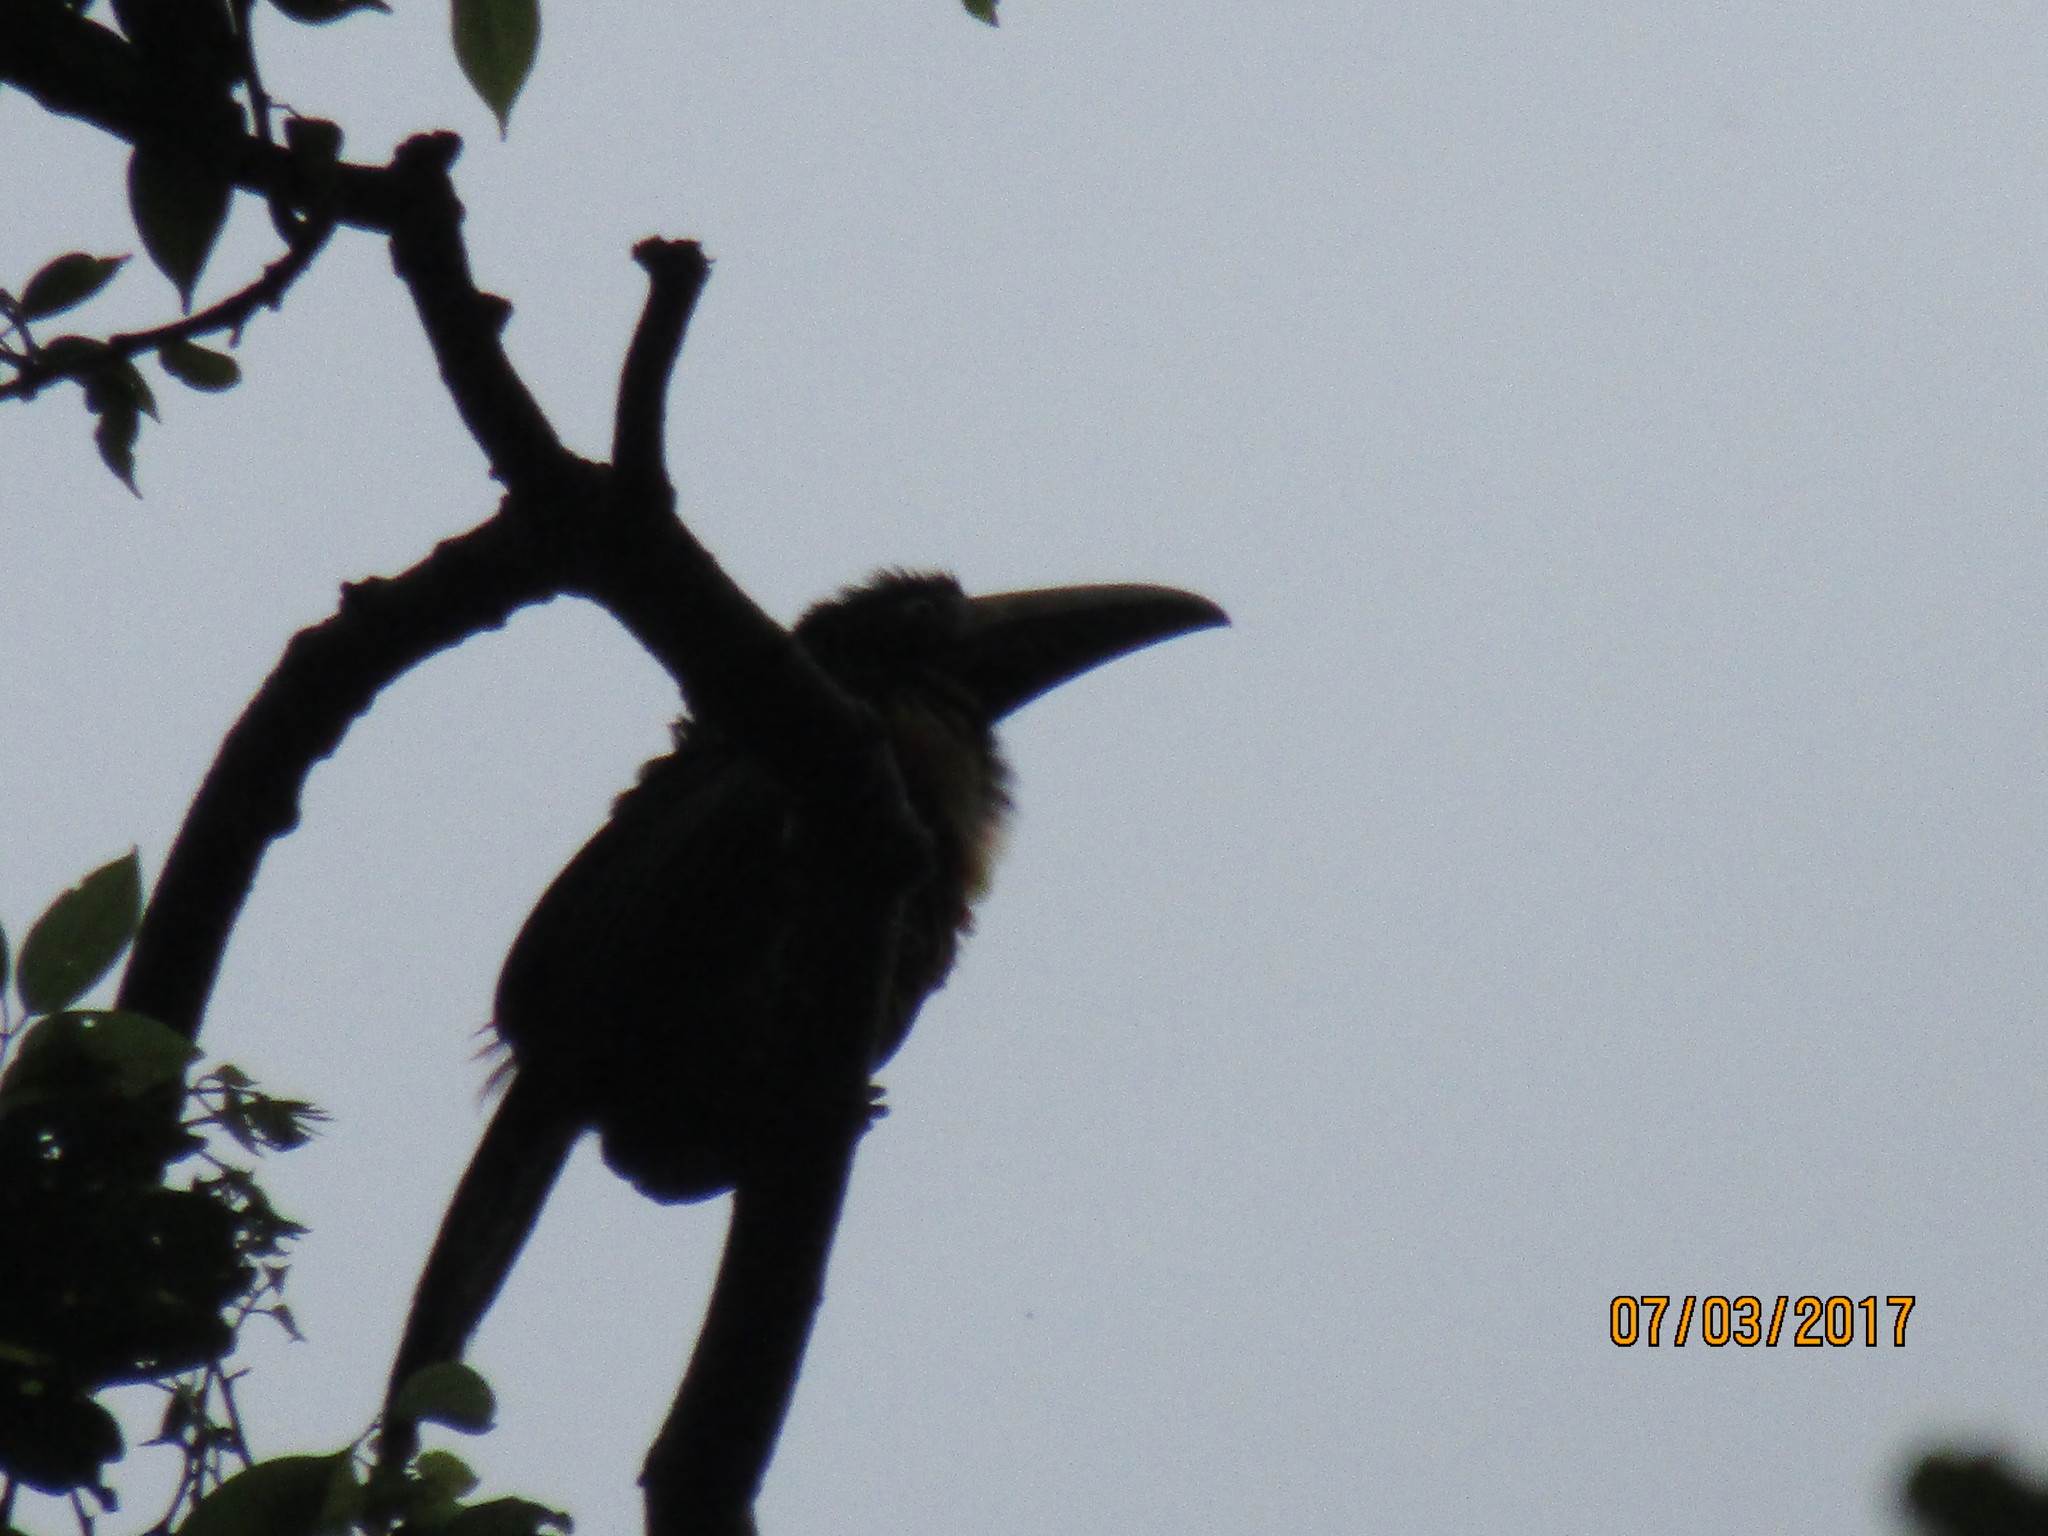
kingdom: Animalia
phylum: Chordata
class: Aves
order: Piciformes
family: Ramphastidae
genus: Aulacorhynchus
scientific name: Aulacorhynchus prasinus
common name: Emerald toucanet
